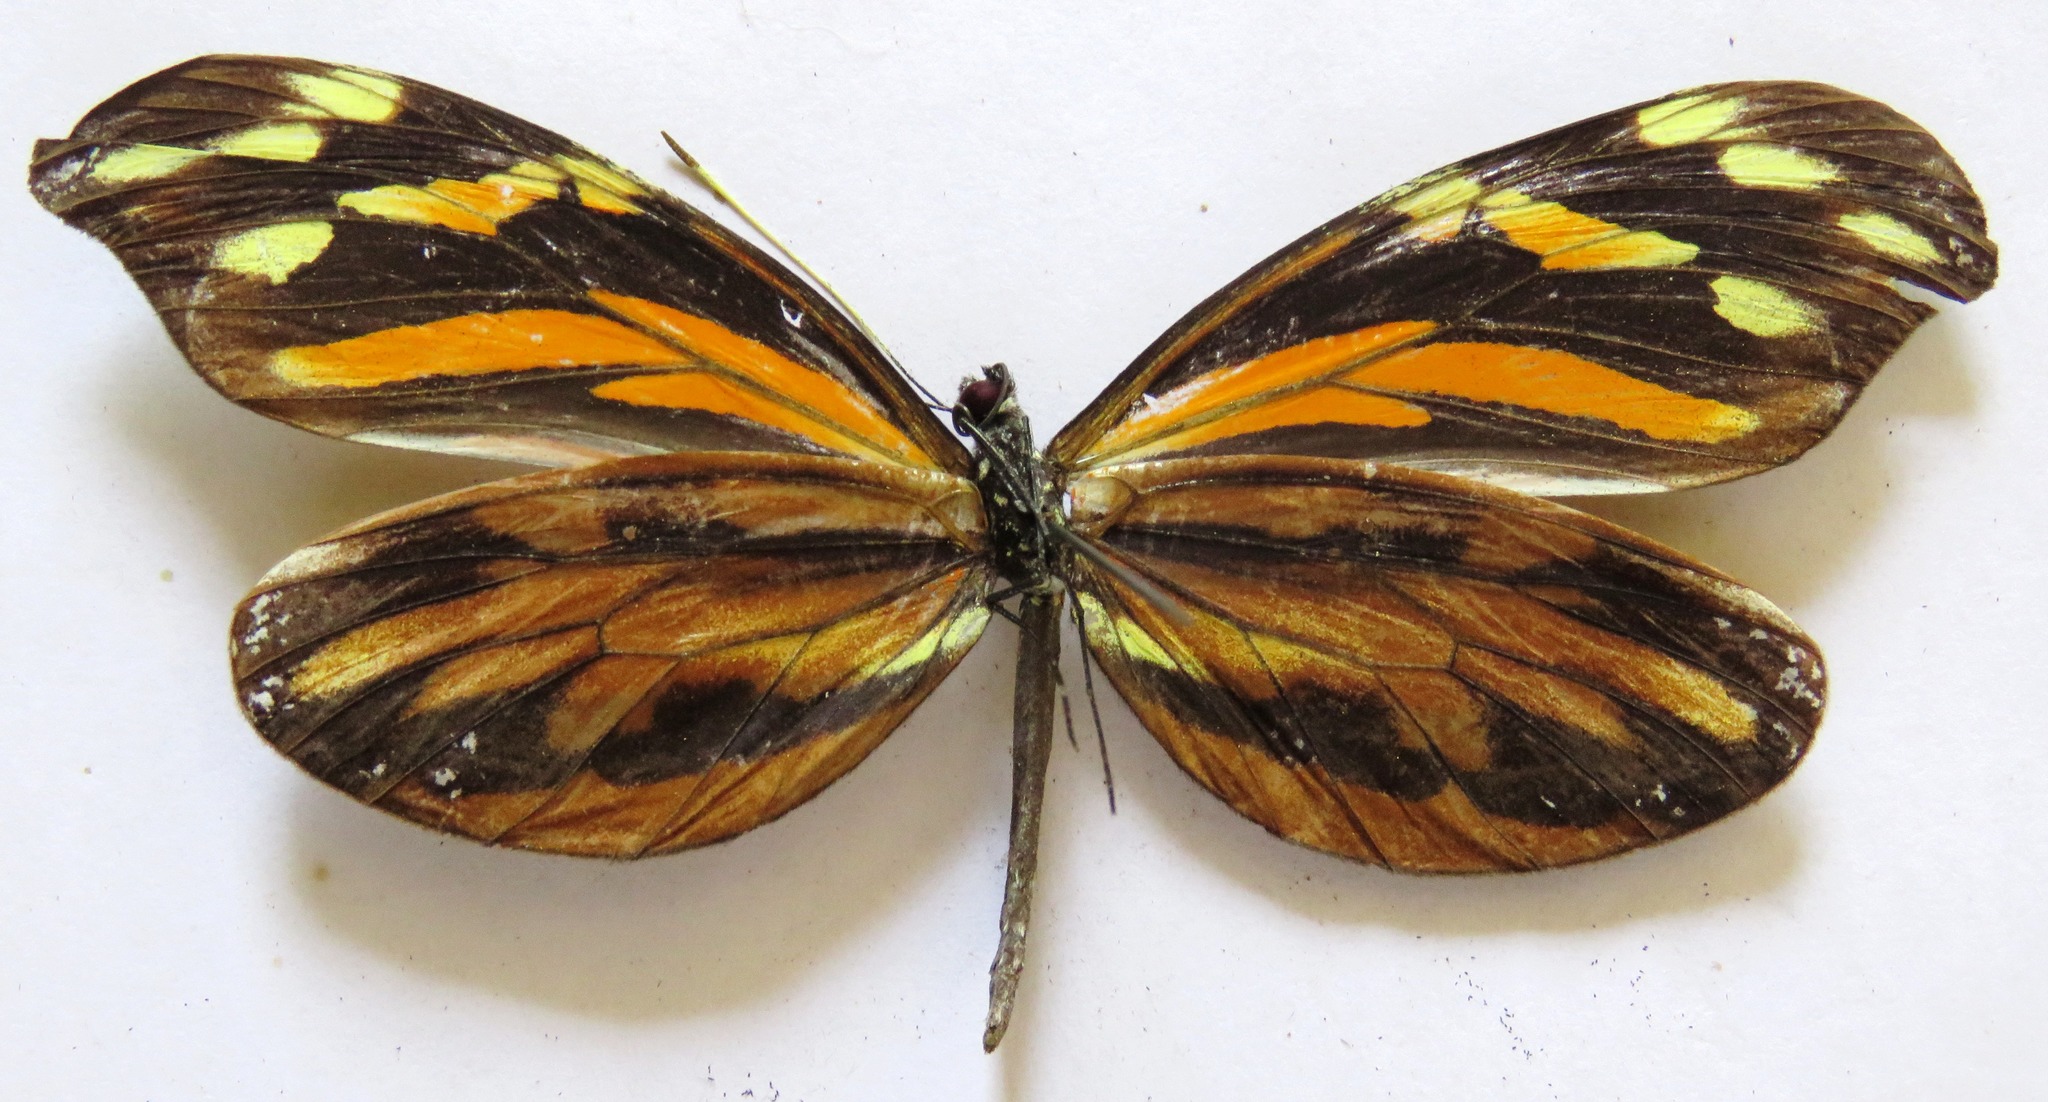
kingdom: Animalia
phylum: Arthropoda
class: Insecta
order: Lepidoptera
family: Pieridae
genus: Dismorphia
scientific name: Dismorphia amphione
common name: Tiger mimic-white
